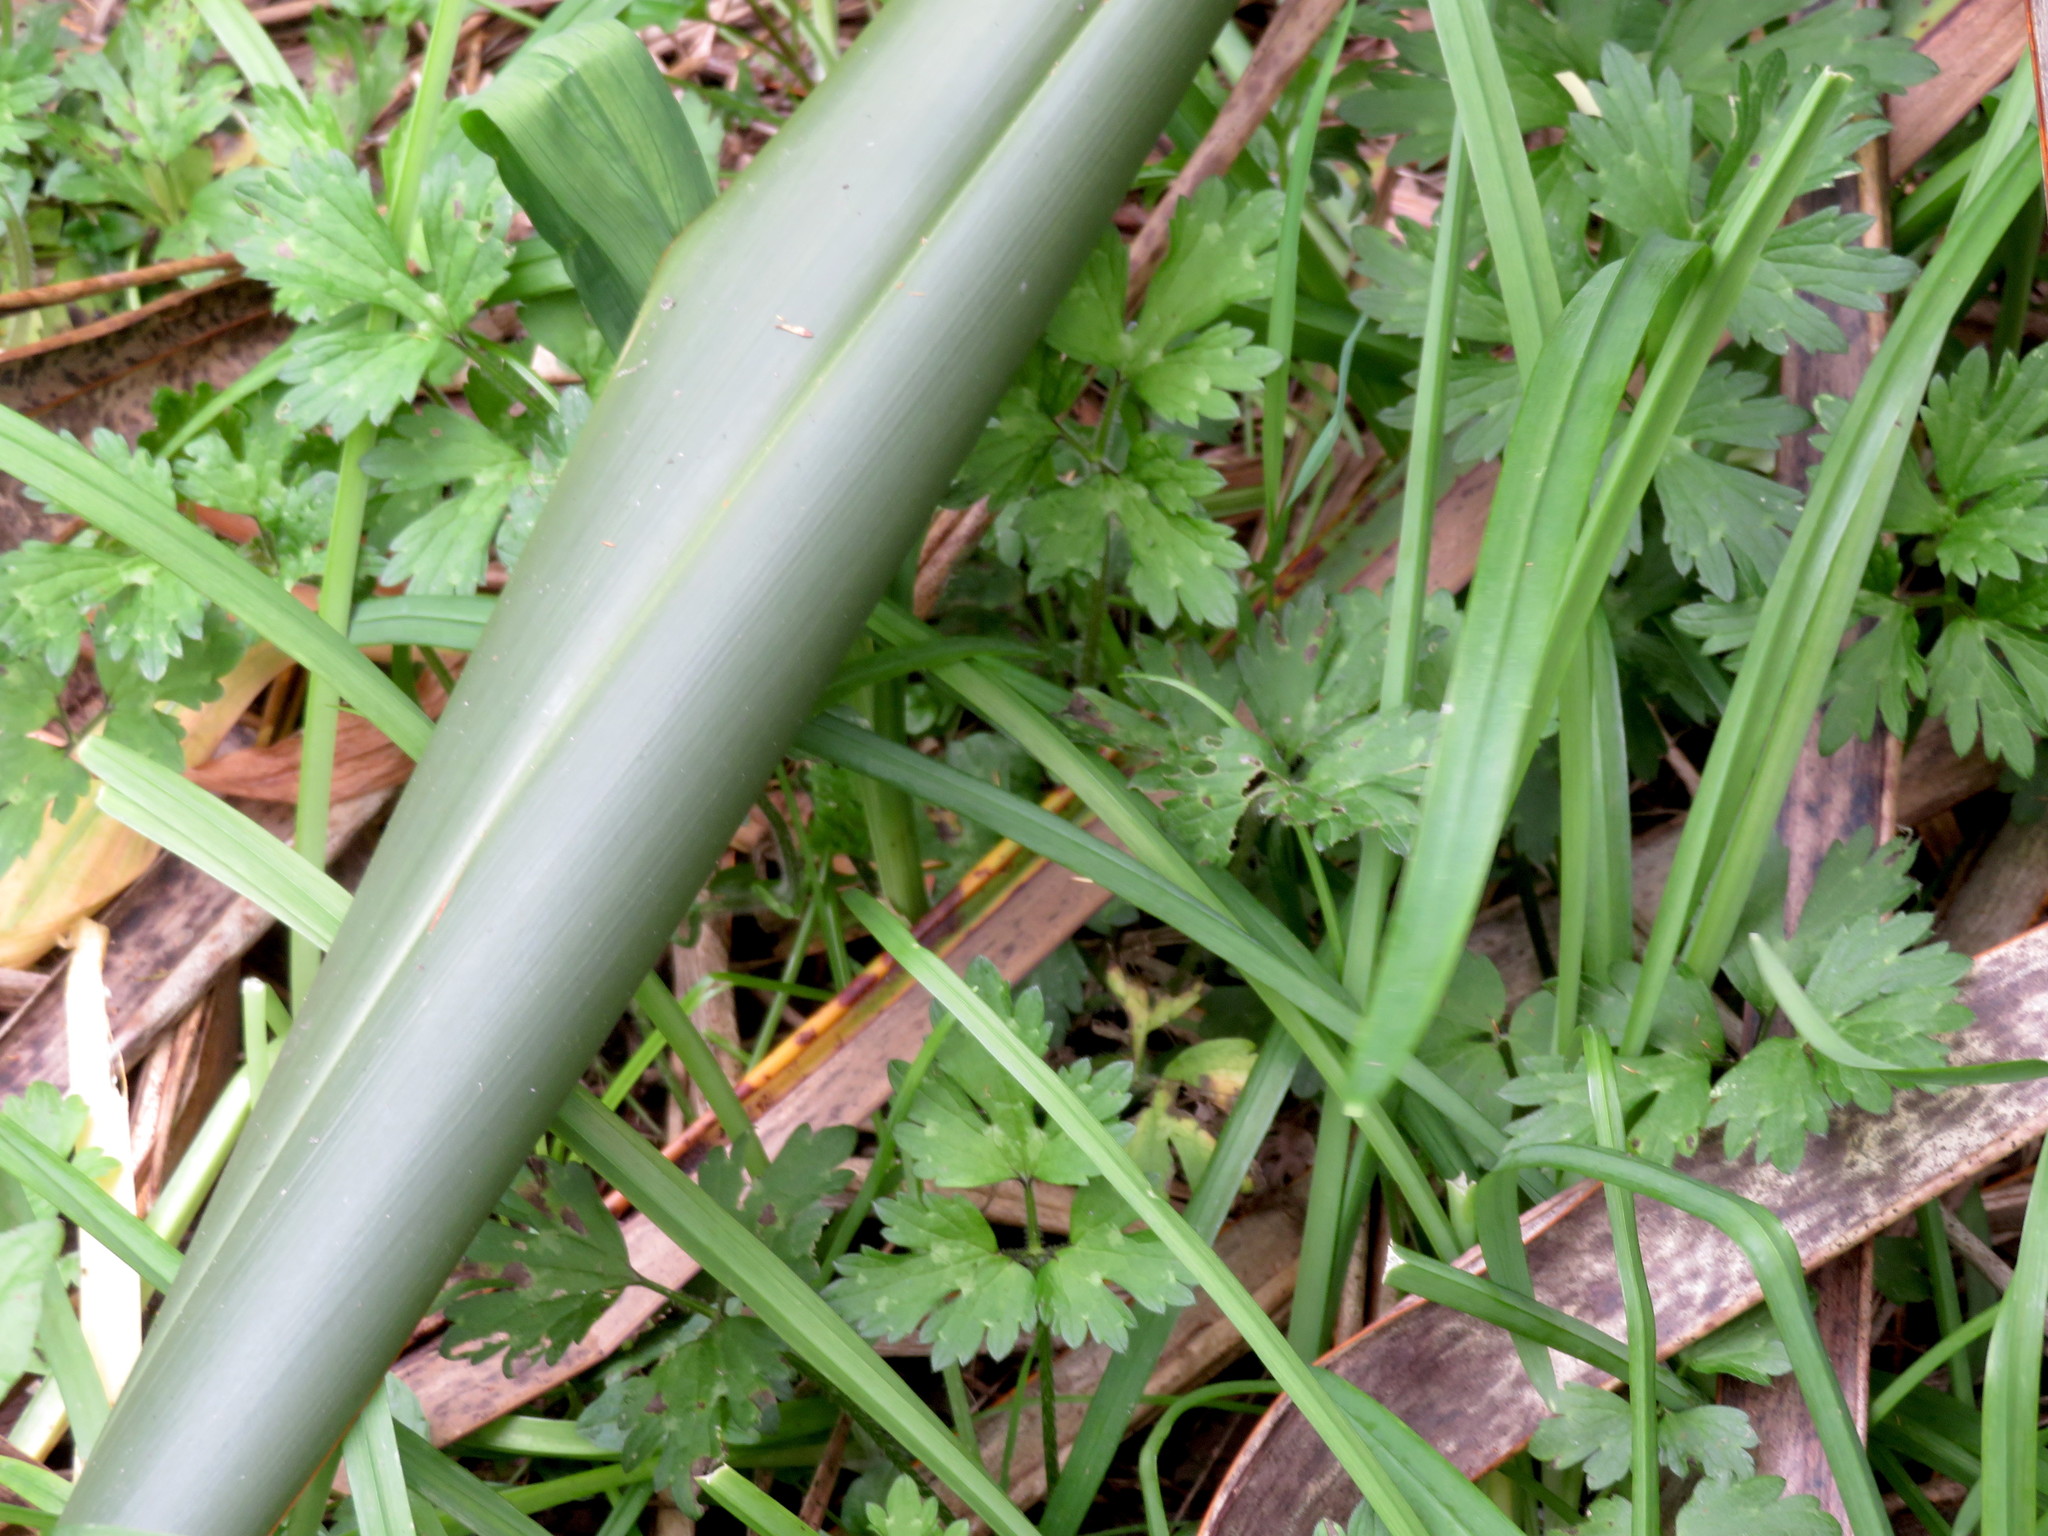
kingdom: Plantae
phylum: Tracheophyta
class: Magnoliopsida
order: Ranunculales
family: Ranunculaceae
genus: Ranunculus
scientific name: Ranunculus repens
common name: Creeping buttercup
